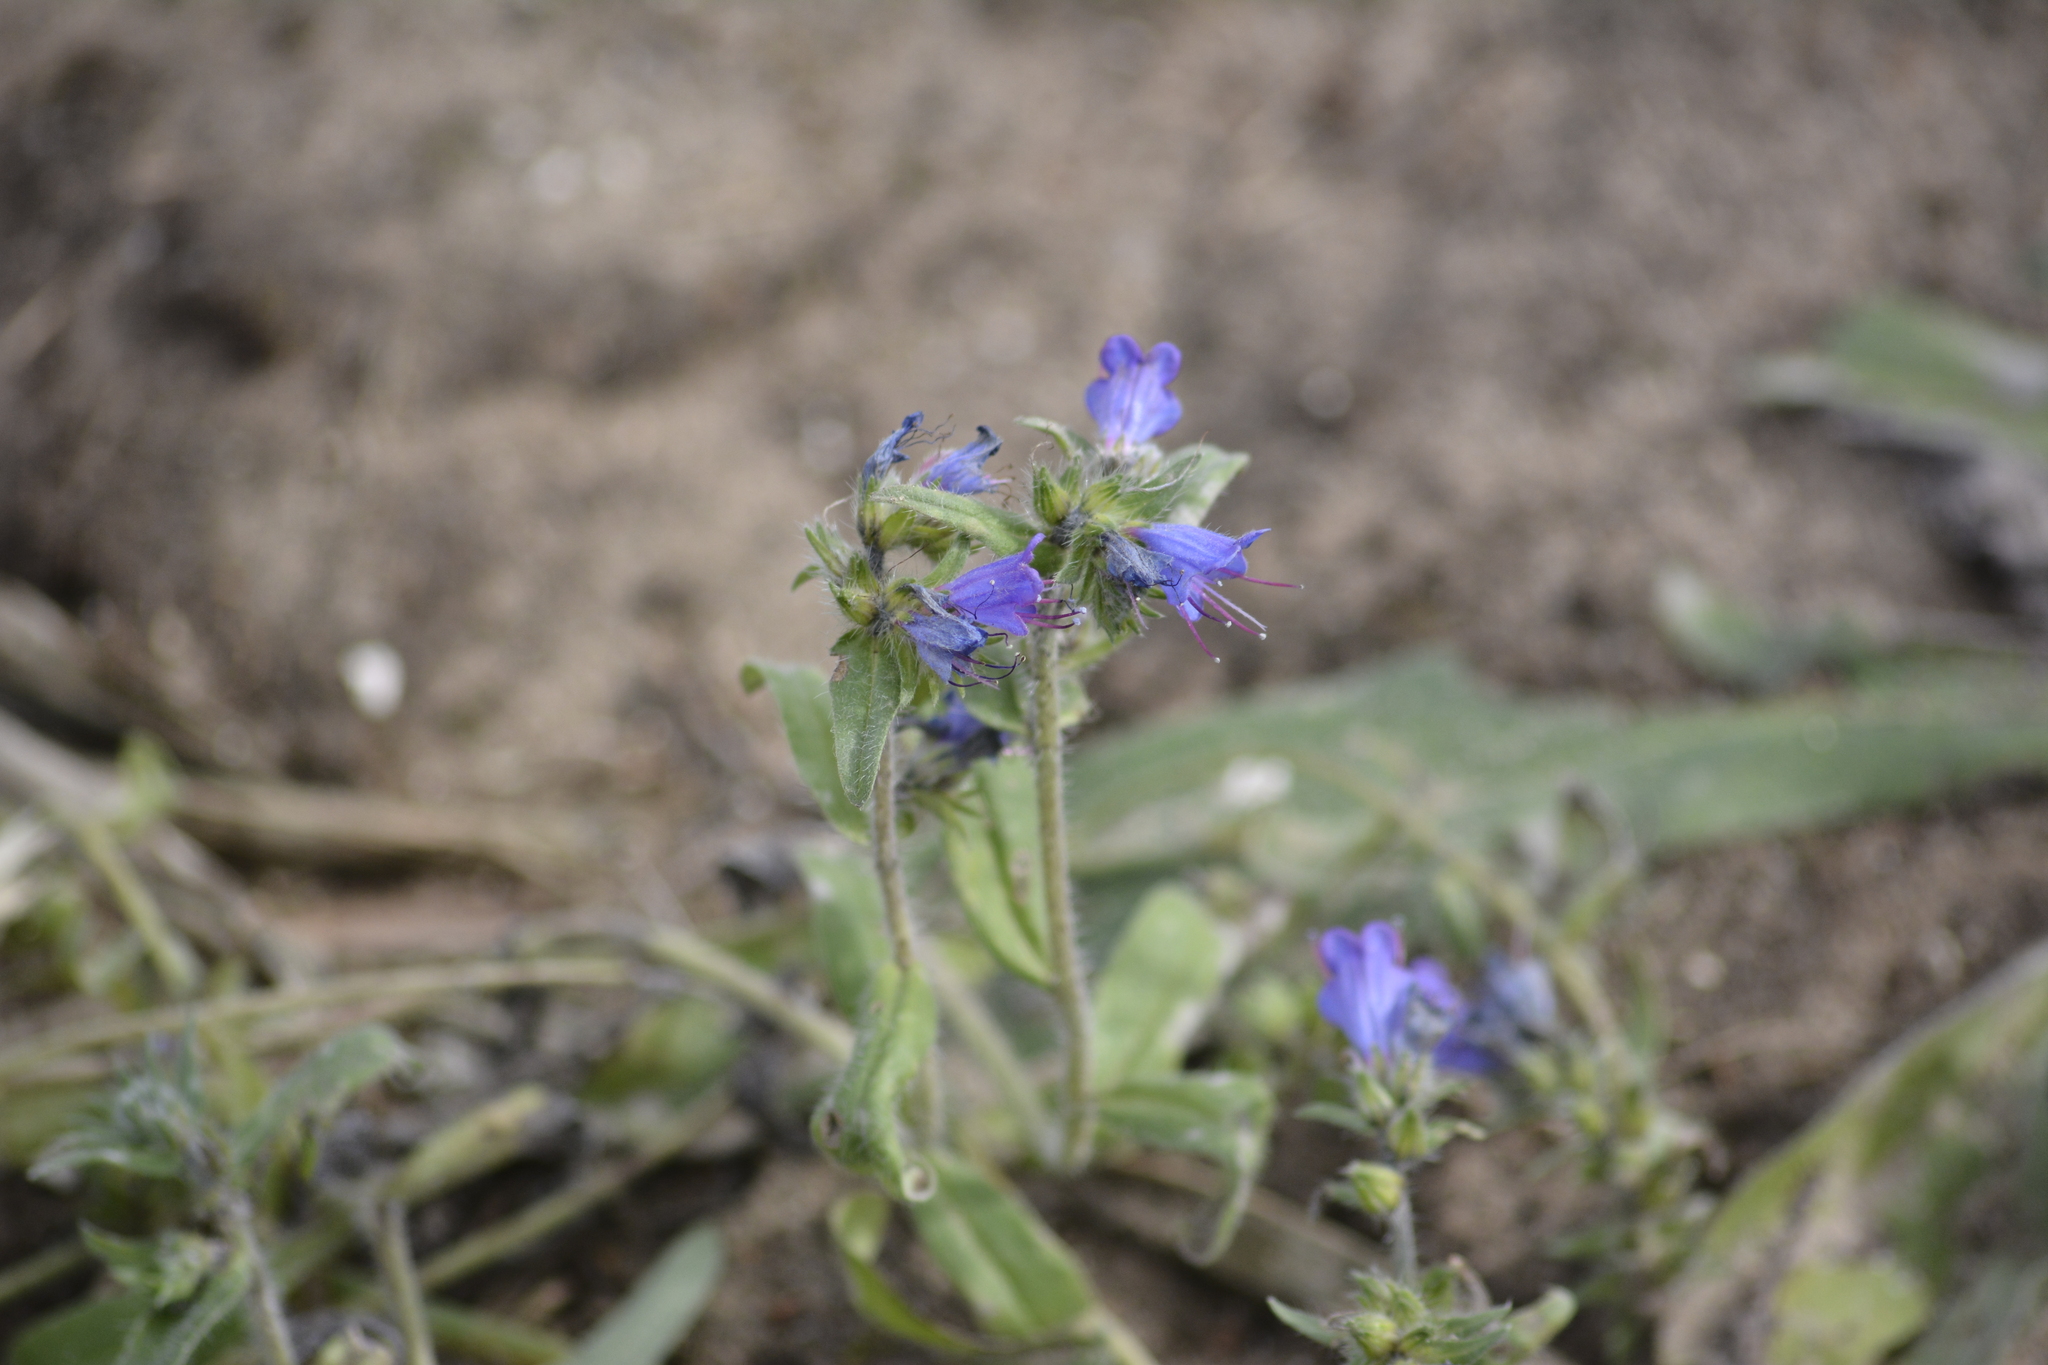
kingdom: Plantae
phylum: Tracheophyta
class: Magnoliopsida
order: Boraginales
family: Boraginaceae
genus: Echium
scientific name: Echium vulgare
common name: Common viper's bugloss
